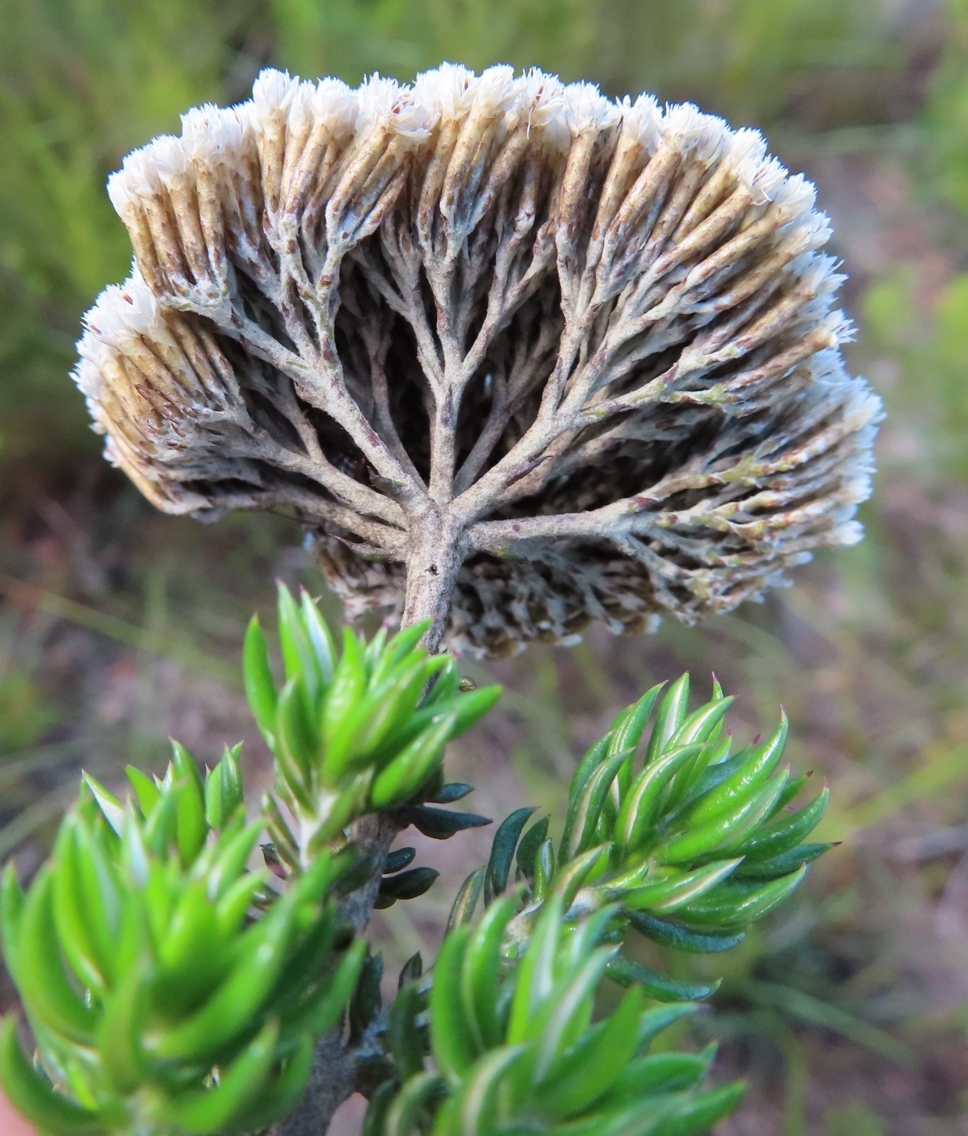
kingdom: Plantae
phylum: Tracheophyta
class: Magnoliopsida
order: Asterales
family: Asteraceae
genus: Metalasia
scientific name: Metalasia muricata
